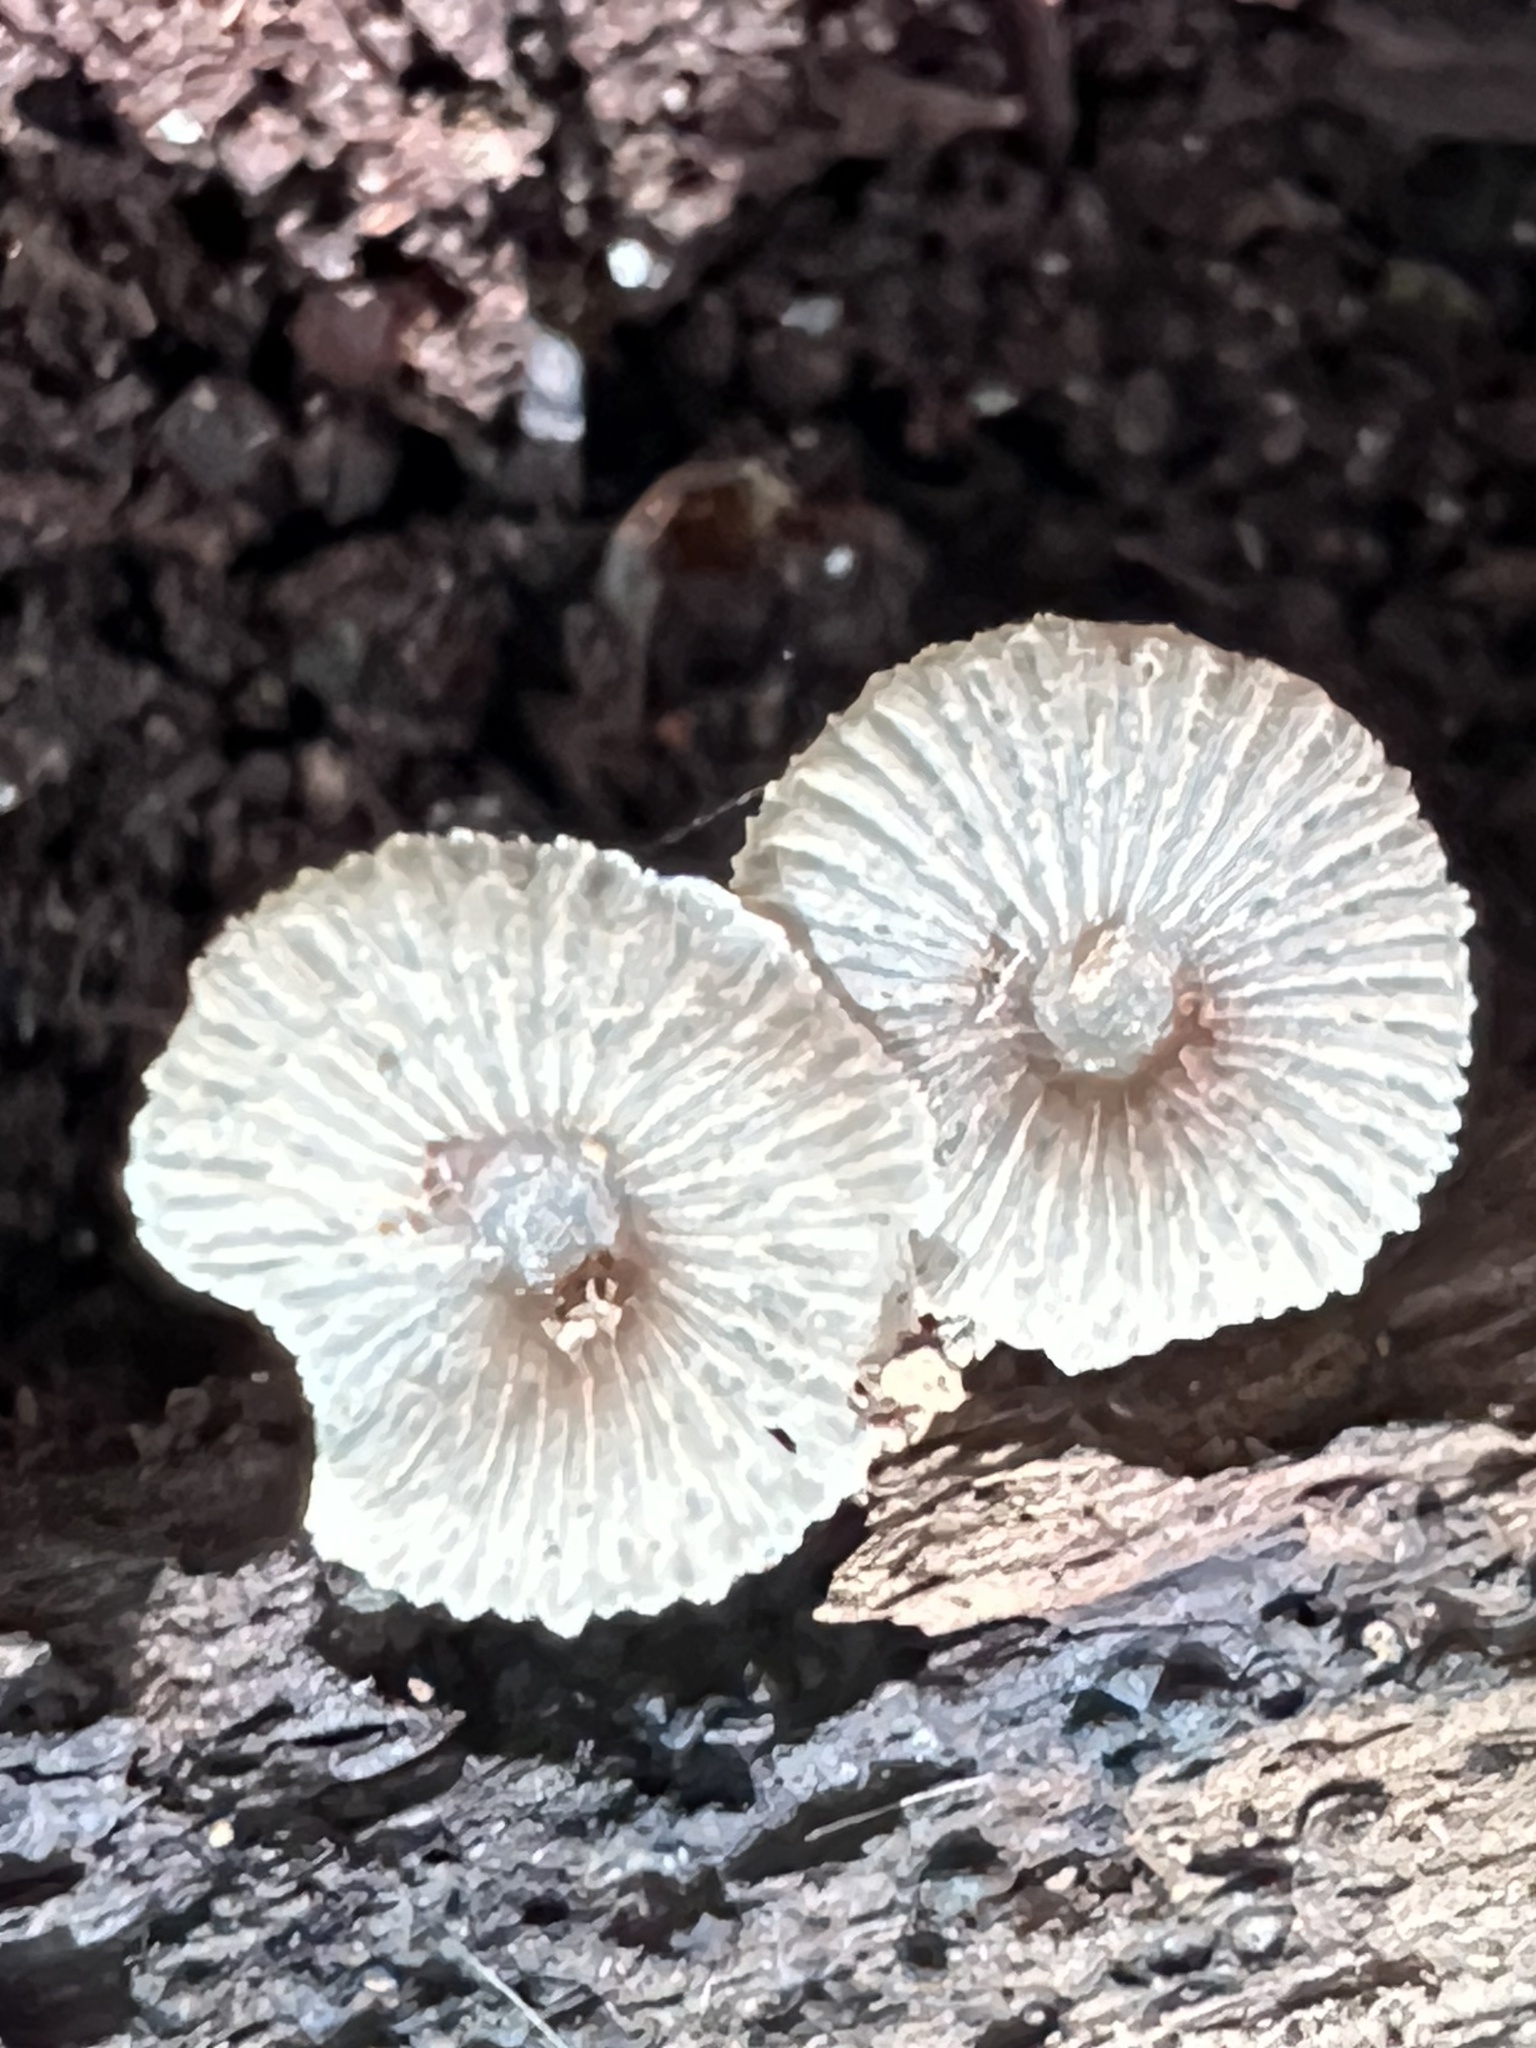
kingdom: Fungi
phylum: Basidiomycota
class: Agaricomycetes
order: Agaricales
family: Mycenaceae
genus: Panellus
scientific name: Panellus luxfilamentus
